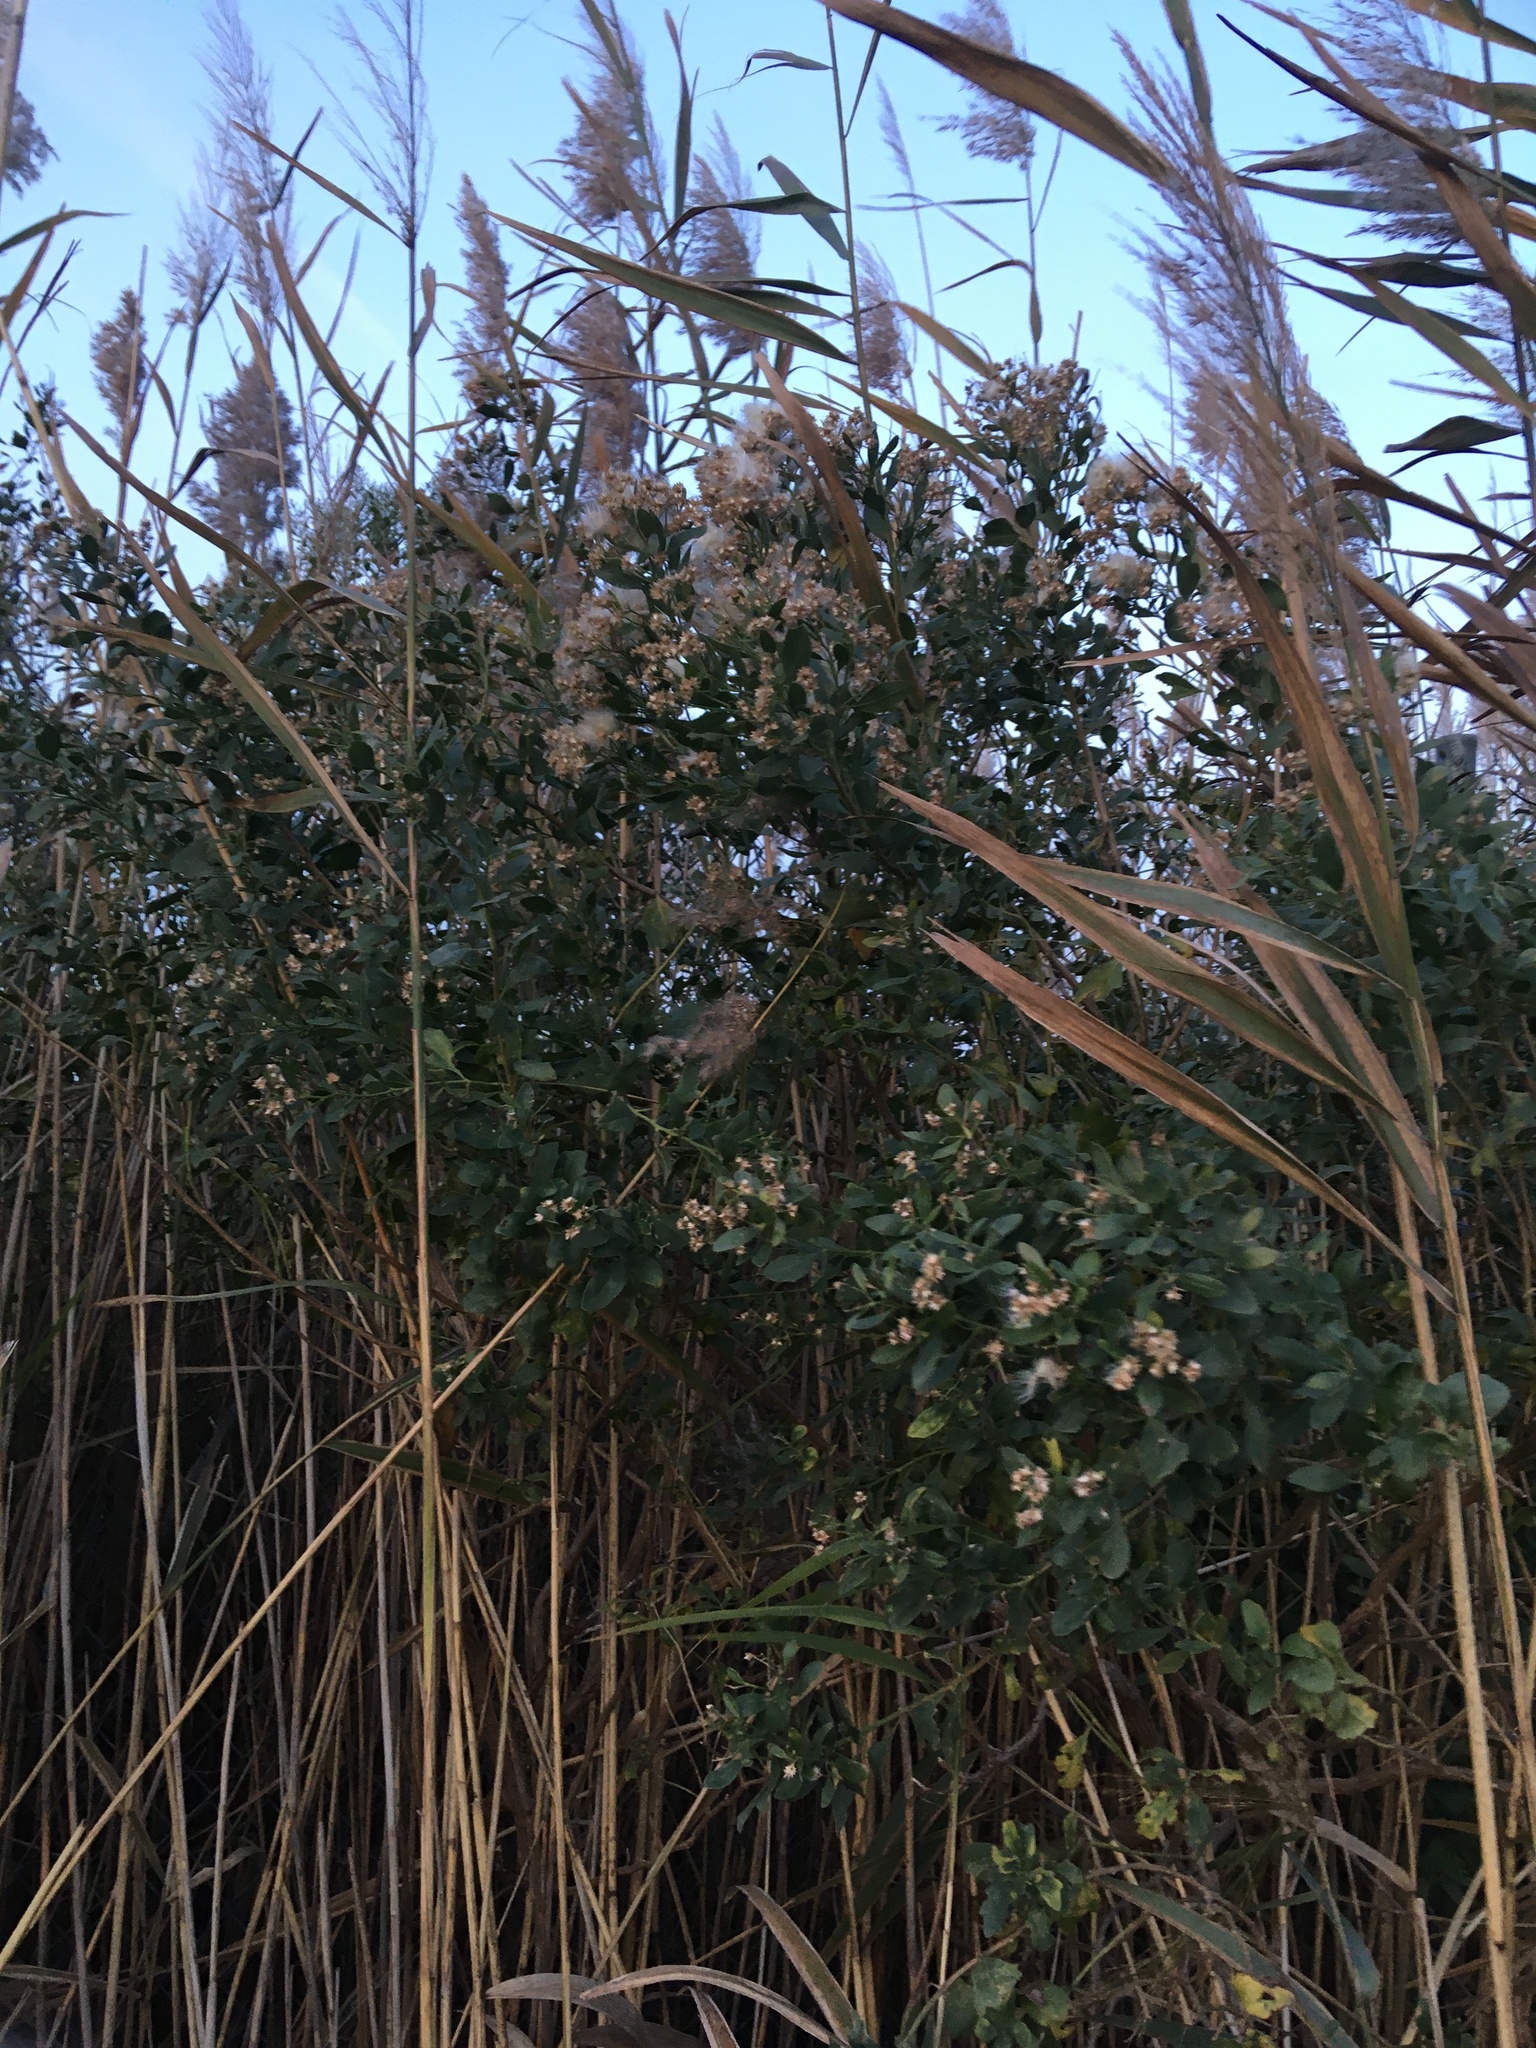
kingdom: Plantae
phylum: Tracheophyta
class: Magnoliopsida
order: Asterales
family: Asteraceae
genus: Baccharis
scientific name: Baccharis halimifolia
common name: Eastern baccharis
